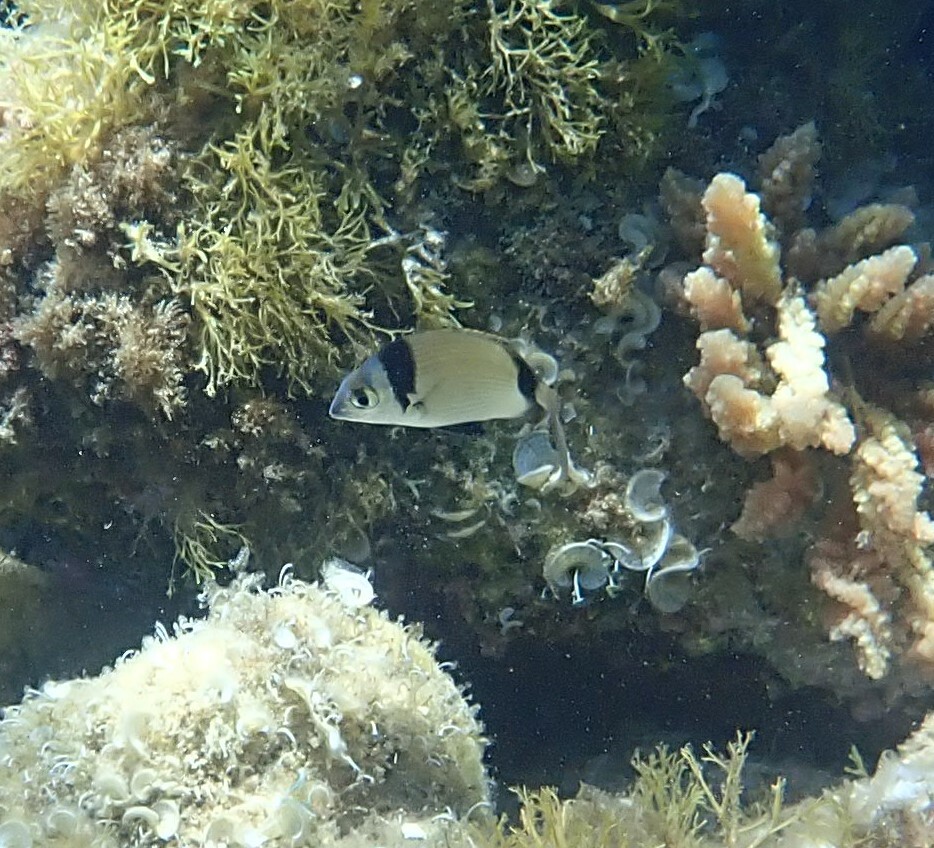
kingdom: Animalia
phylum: Chordata
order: Perciformes
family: Sparidae
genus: Diplodus
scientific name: Diplodus vulgaris
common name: Common two-banded seabream
